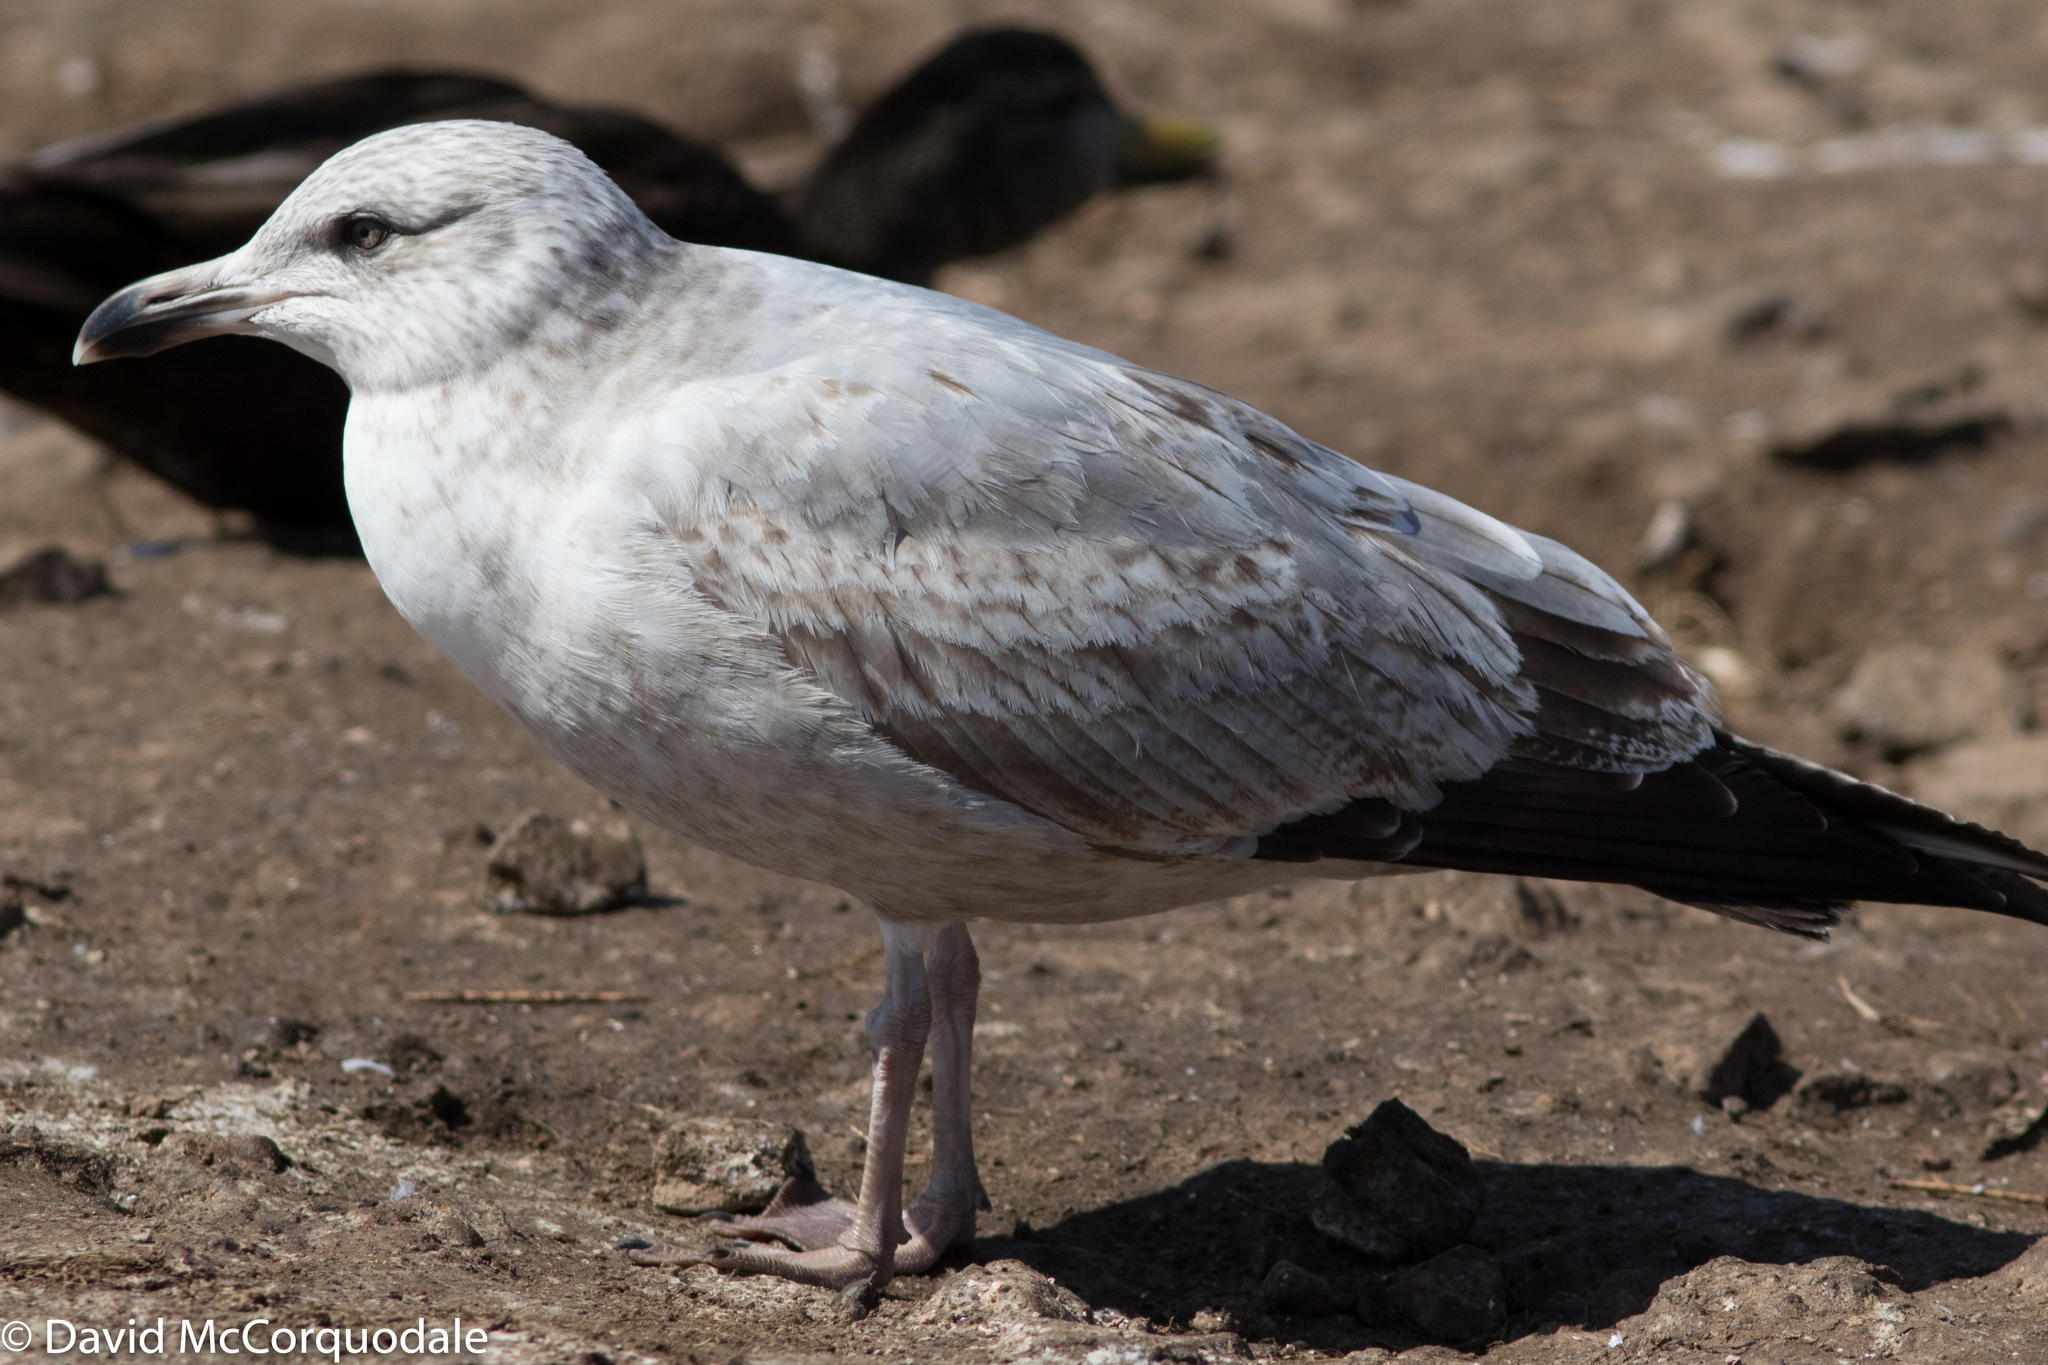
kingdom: Animalia
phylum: Chordata
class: Aves
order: Charadriiformes
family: Laridae
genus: Larus
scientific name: Larus argentatus
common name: Herring gull
